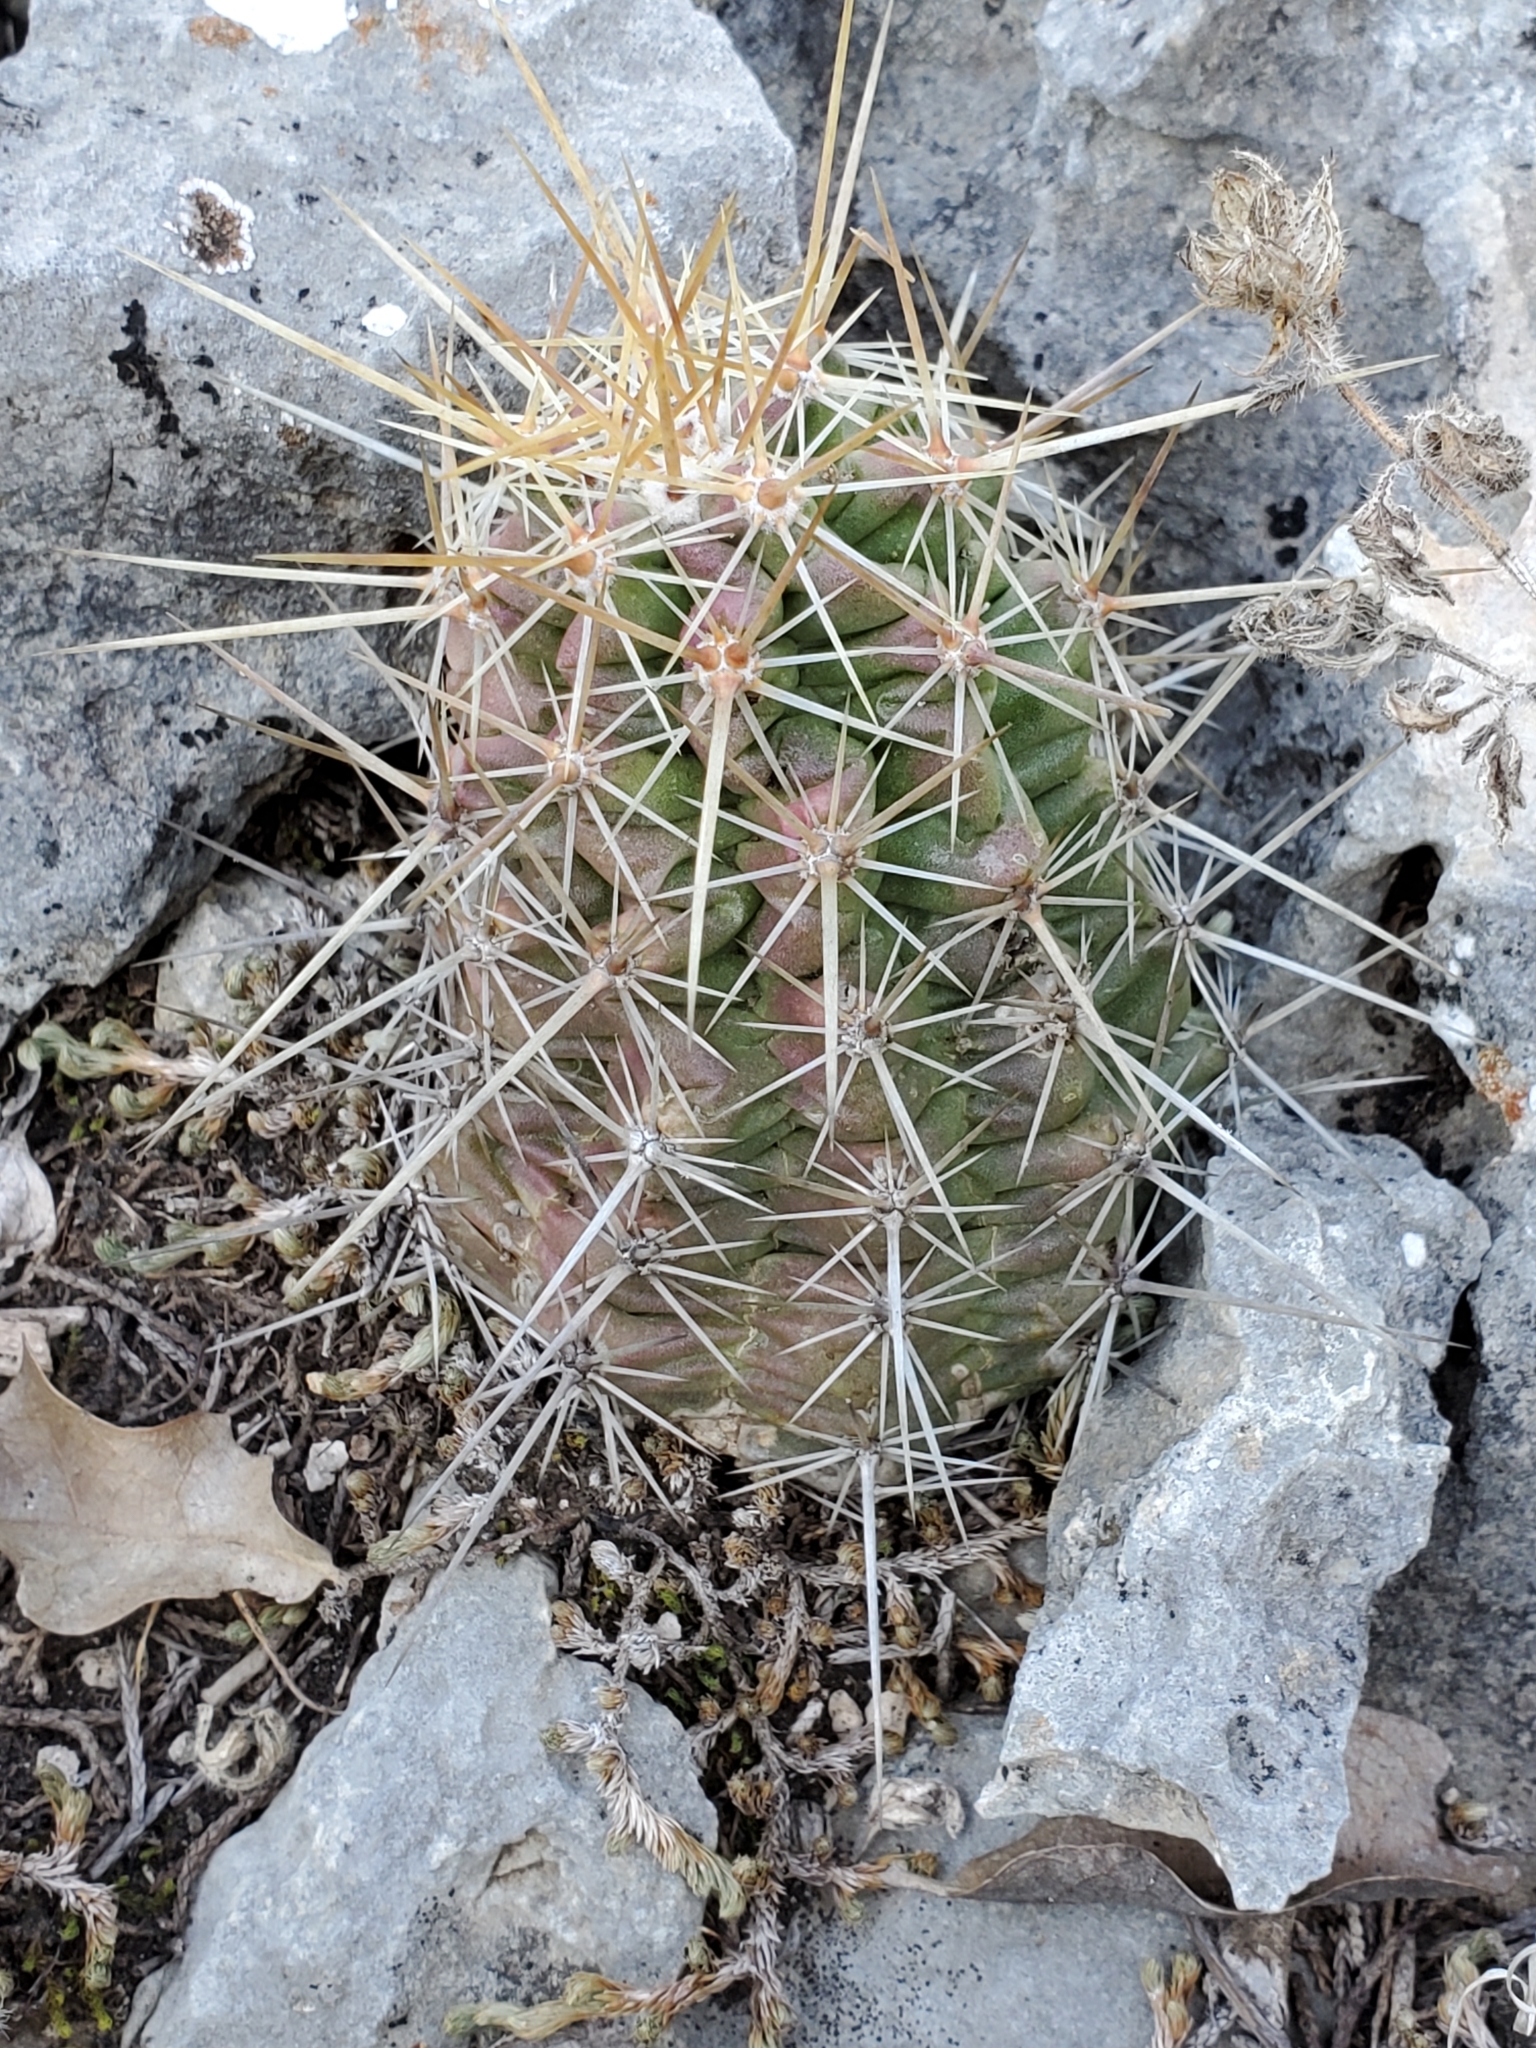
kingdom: Plantae
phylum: Tracheophyta
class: Magnoliopsida
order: Caryophyllales
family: Cactaceae
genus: Echinocereus
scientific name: Echinocereus enneacanthus
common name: Pitaya
